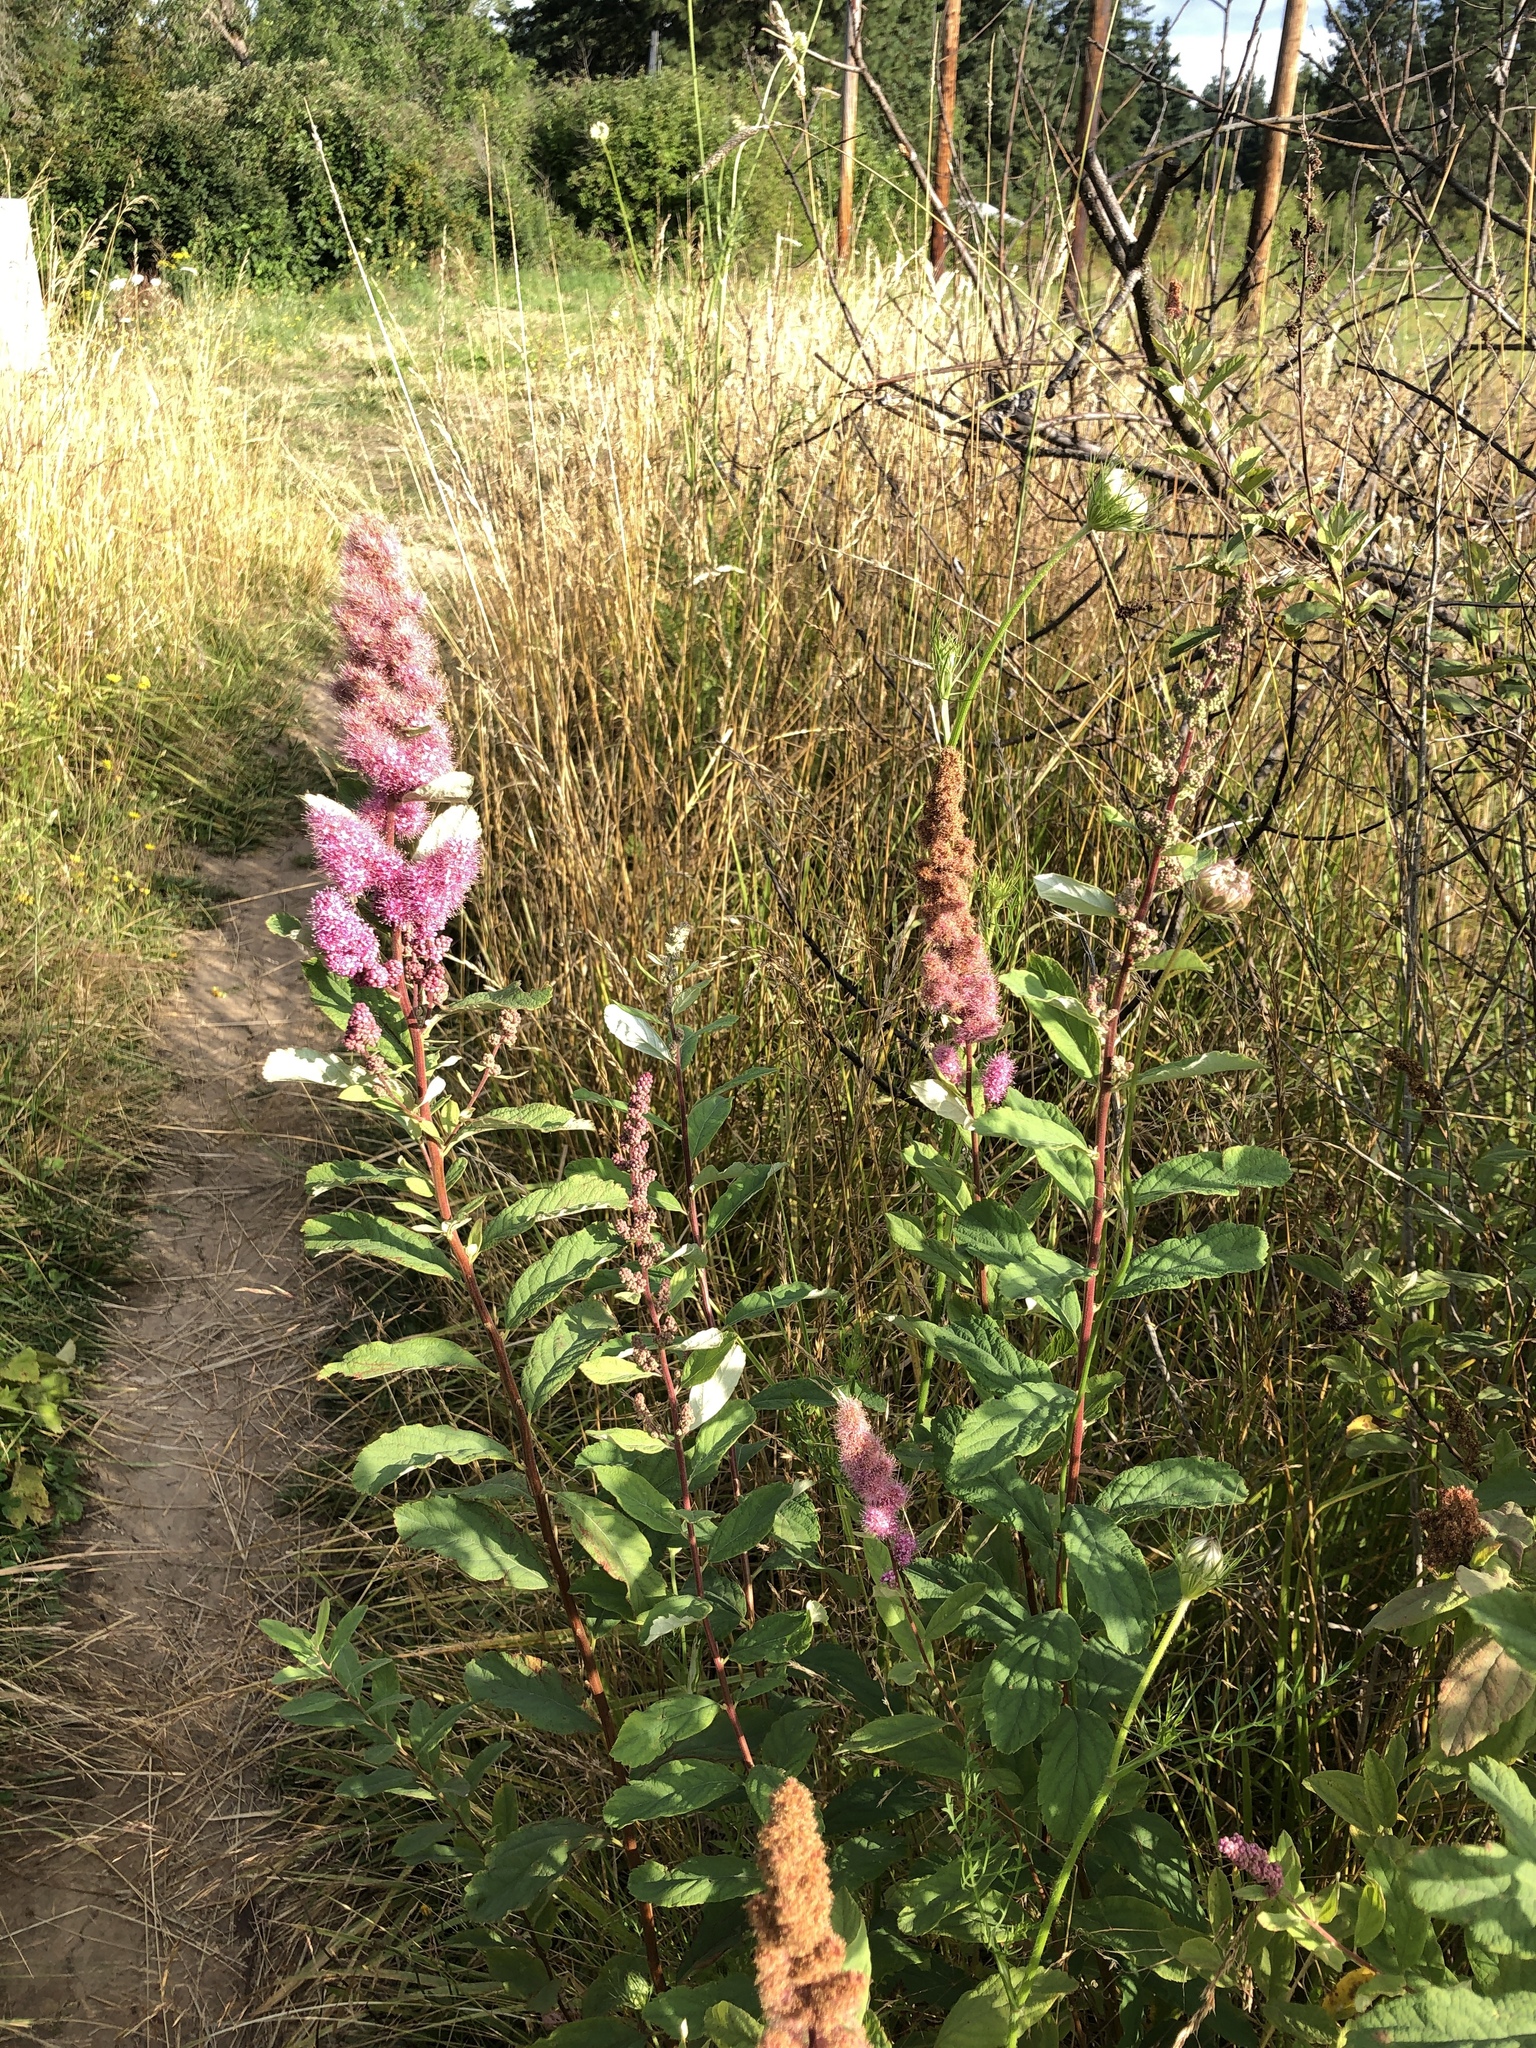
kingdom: Plantae
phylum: Tracheophyta
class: Magnoliopsida
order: Rosales
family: Rosaceae
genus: Spiraea
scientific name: Spiraea douglasii
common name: Steeplebush
